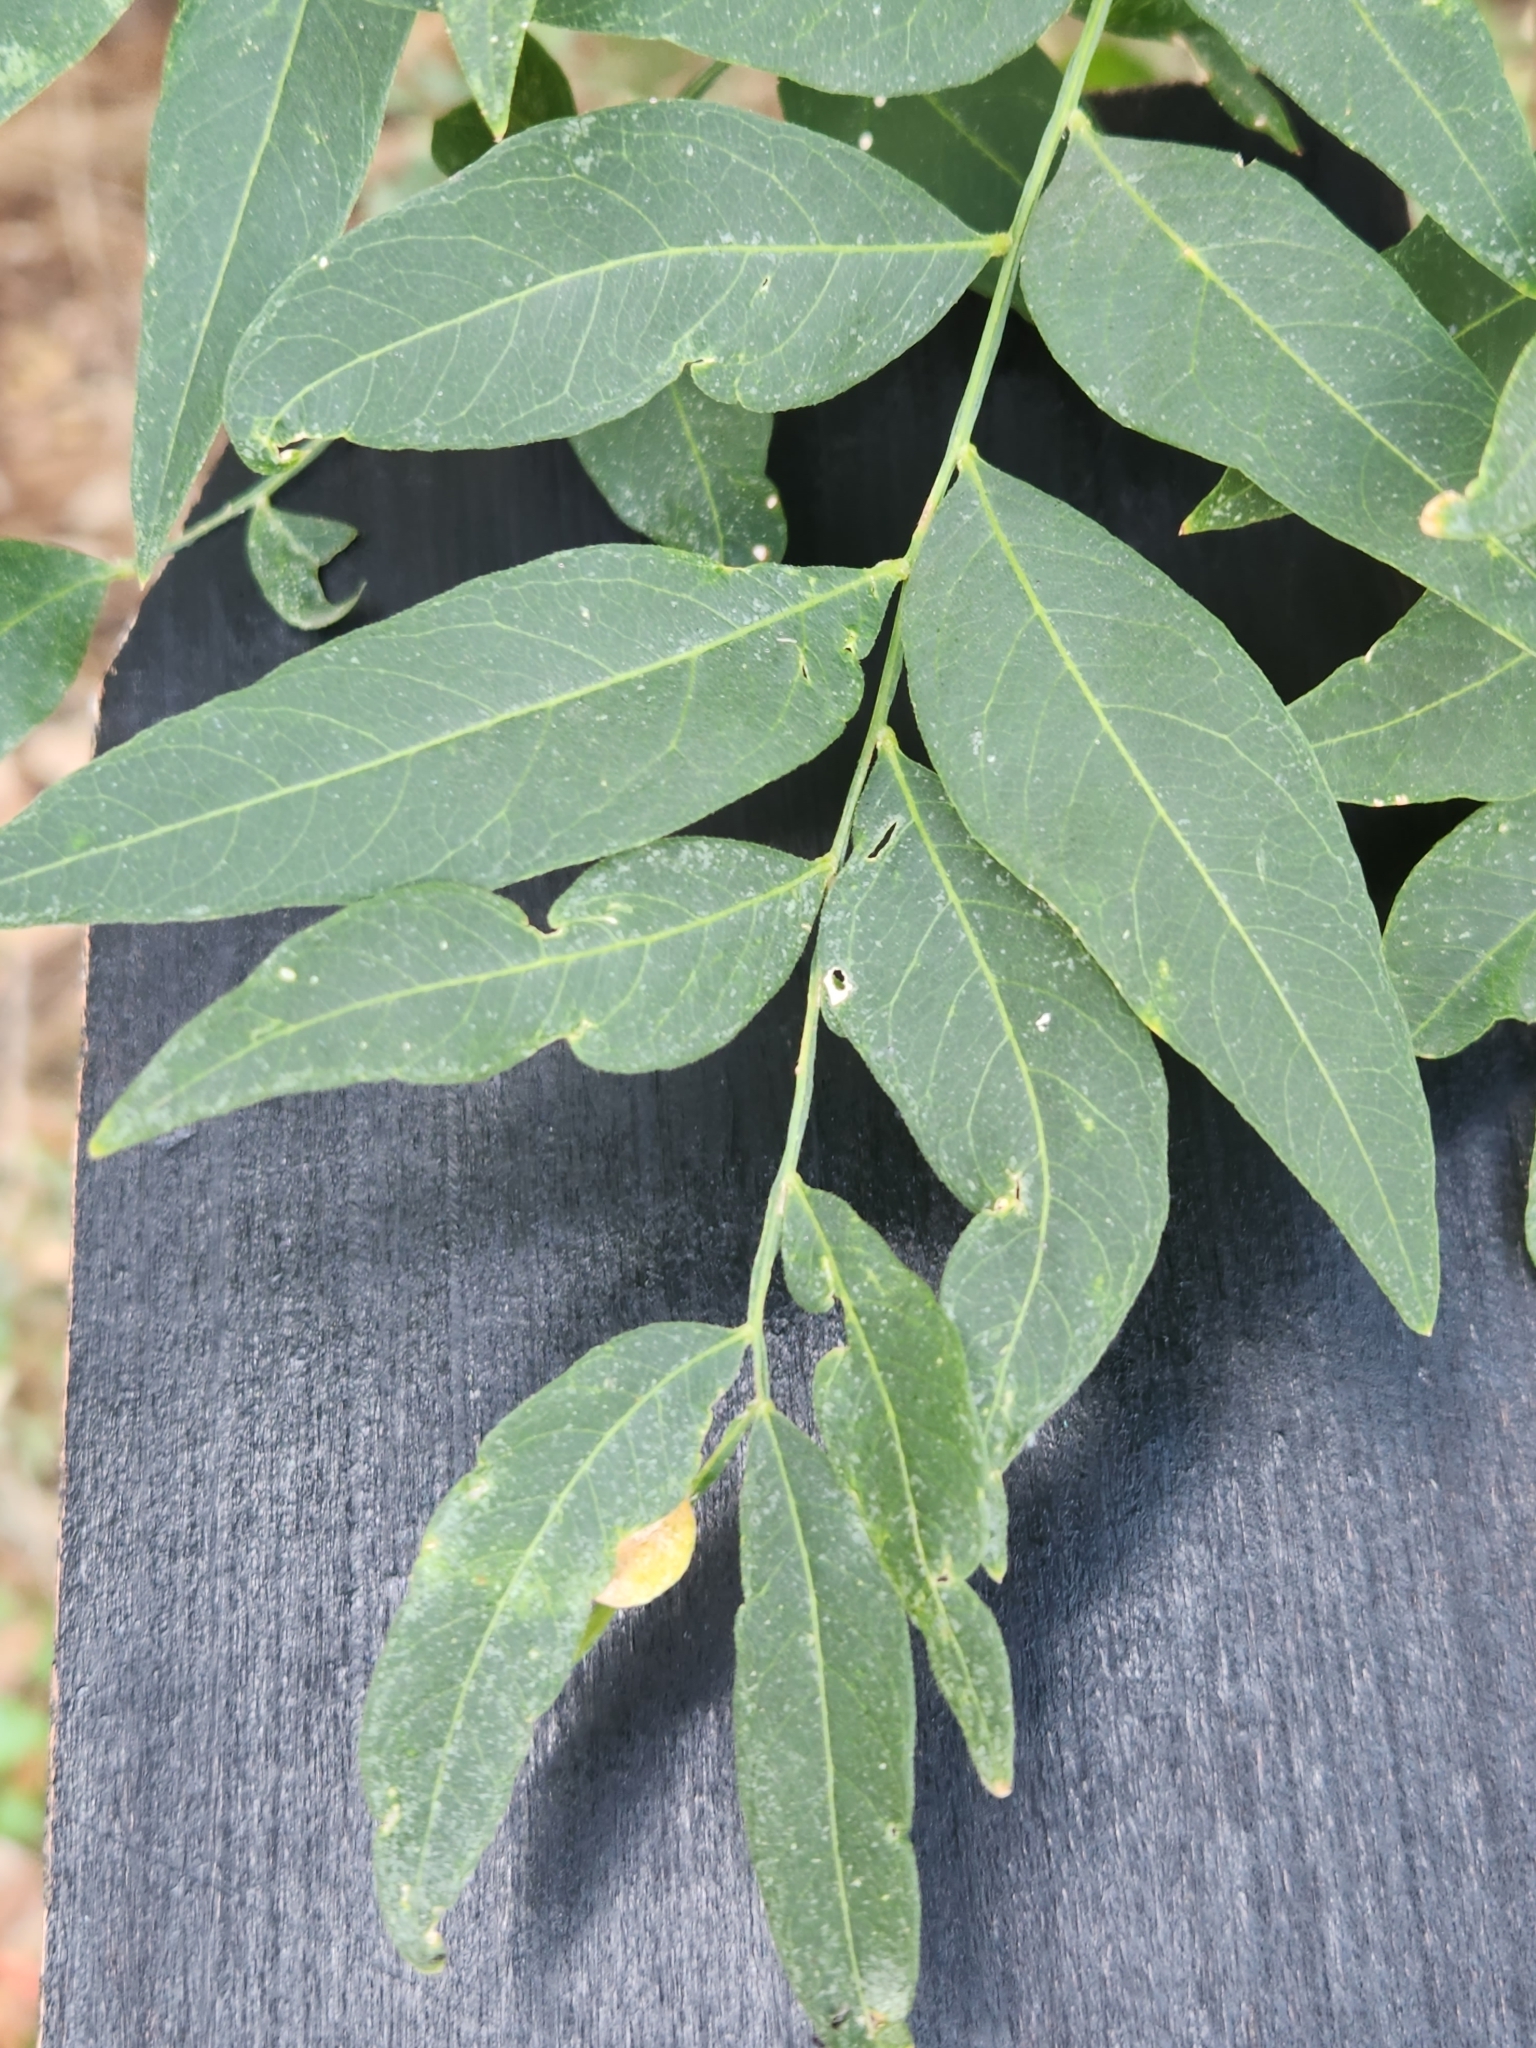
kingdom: Plantae
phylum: Tracheophyta
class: Magnoliopsida
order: Sapindales
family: Sapindaceae
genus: Sapindus
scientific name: Sapindus drummondii
